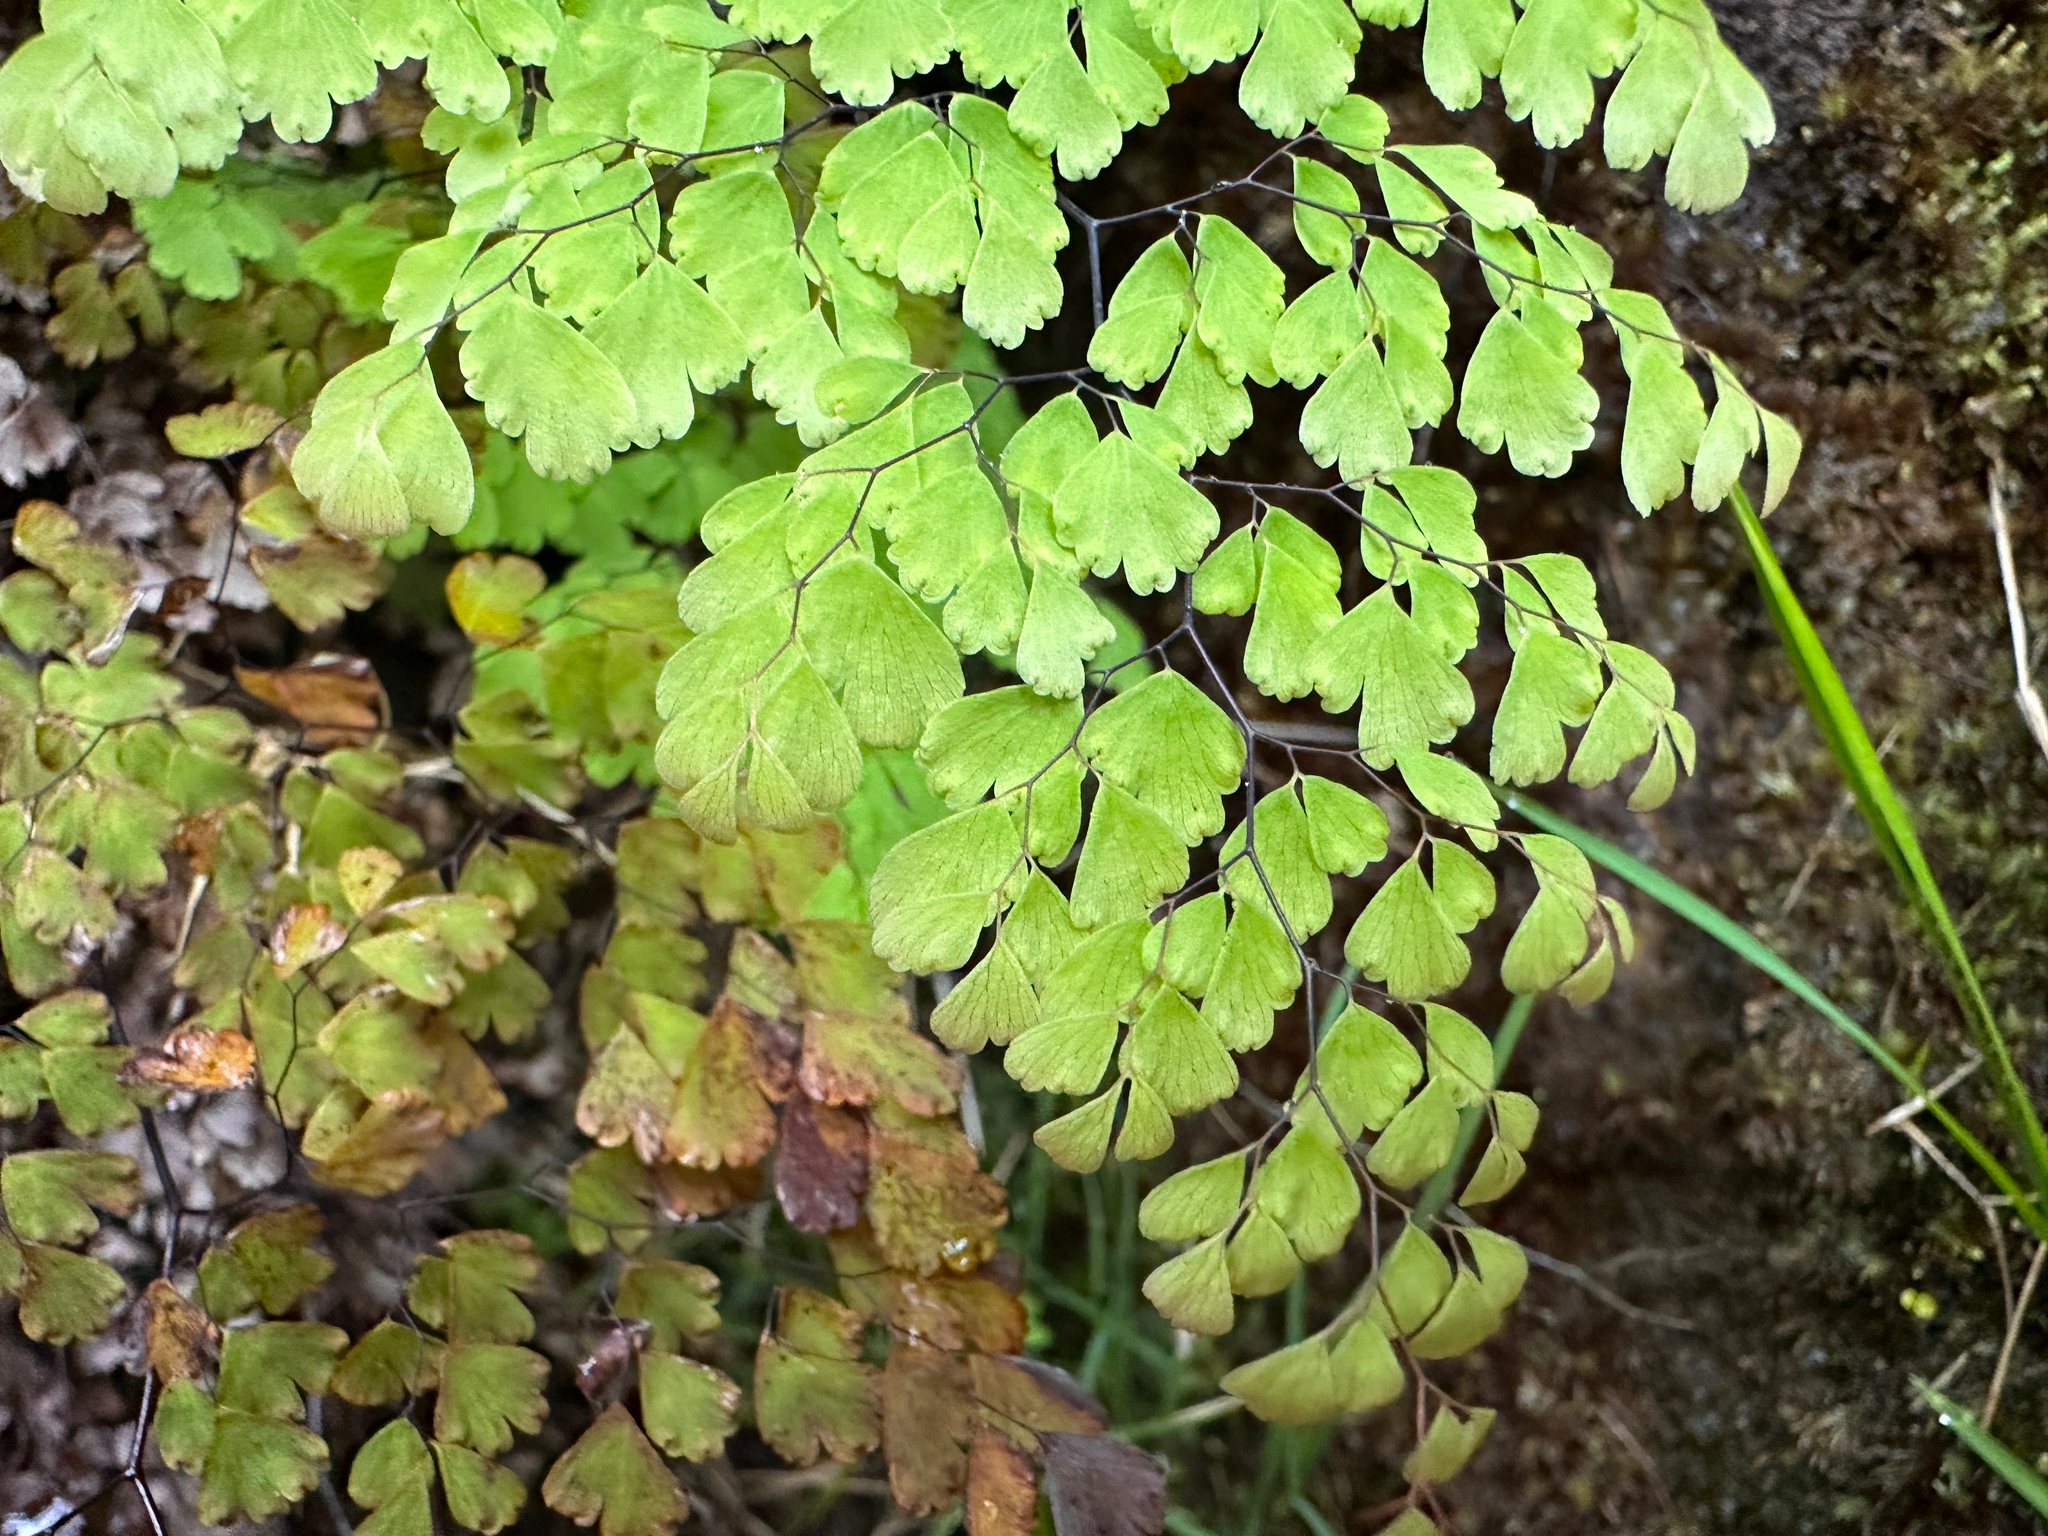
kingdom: Plantae
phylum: Tracheophyta
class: Polypodiopsida
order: Polypodiales
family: Pteridaceae
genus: Adiantum
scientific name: Adiantum raddianum
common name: Delta maidenhair fern
